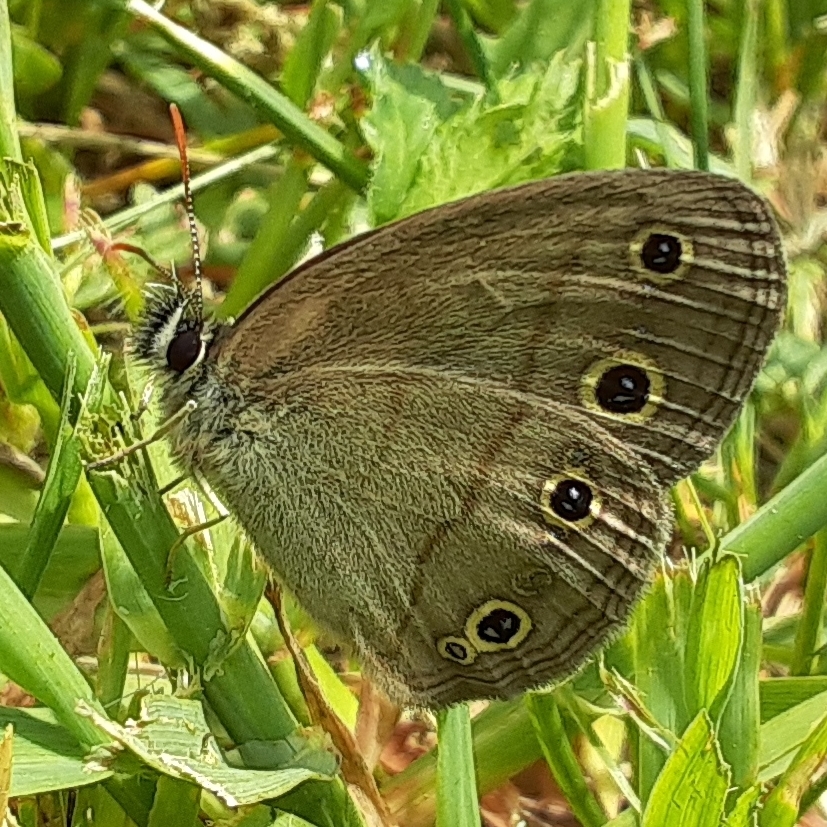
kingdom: Animalia
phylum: Arthropoda
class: Insecta
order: Lepidoptera
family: Nymphalidae
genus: Euptychia
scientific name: Euptychia cymela
